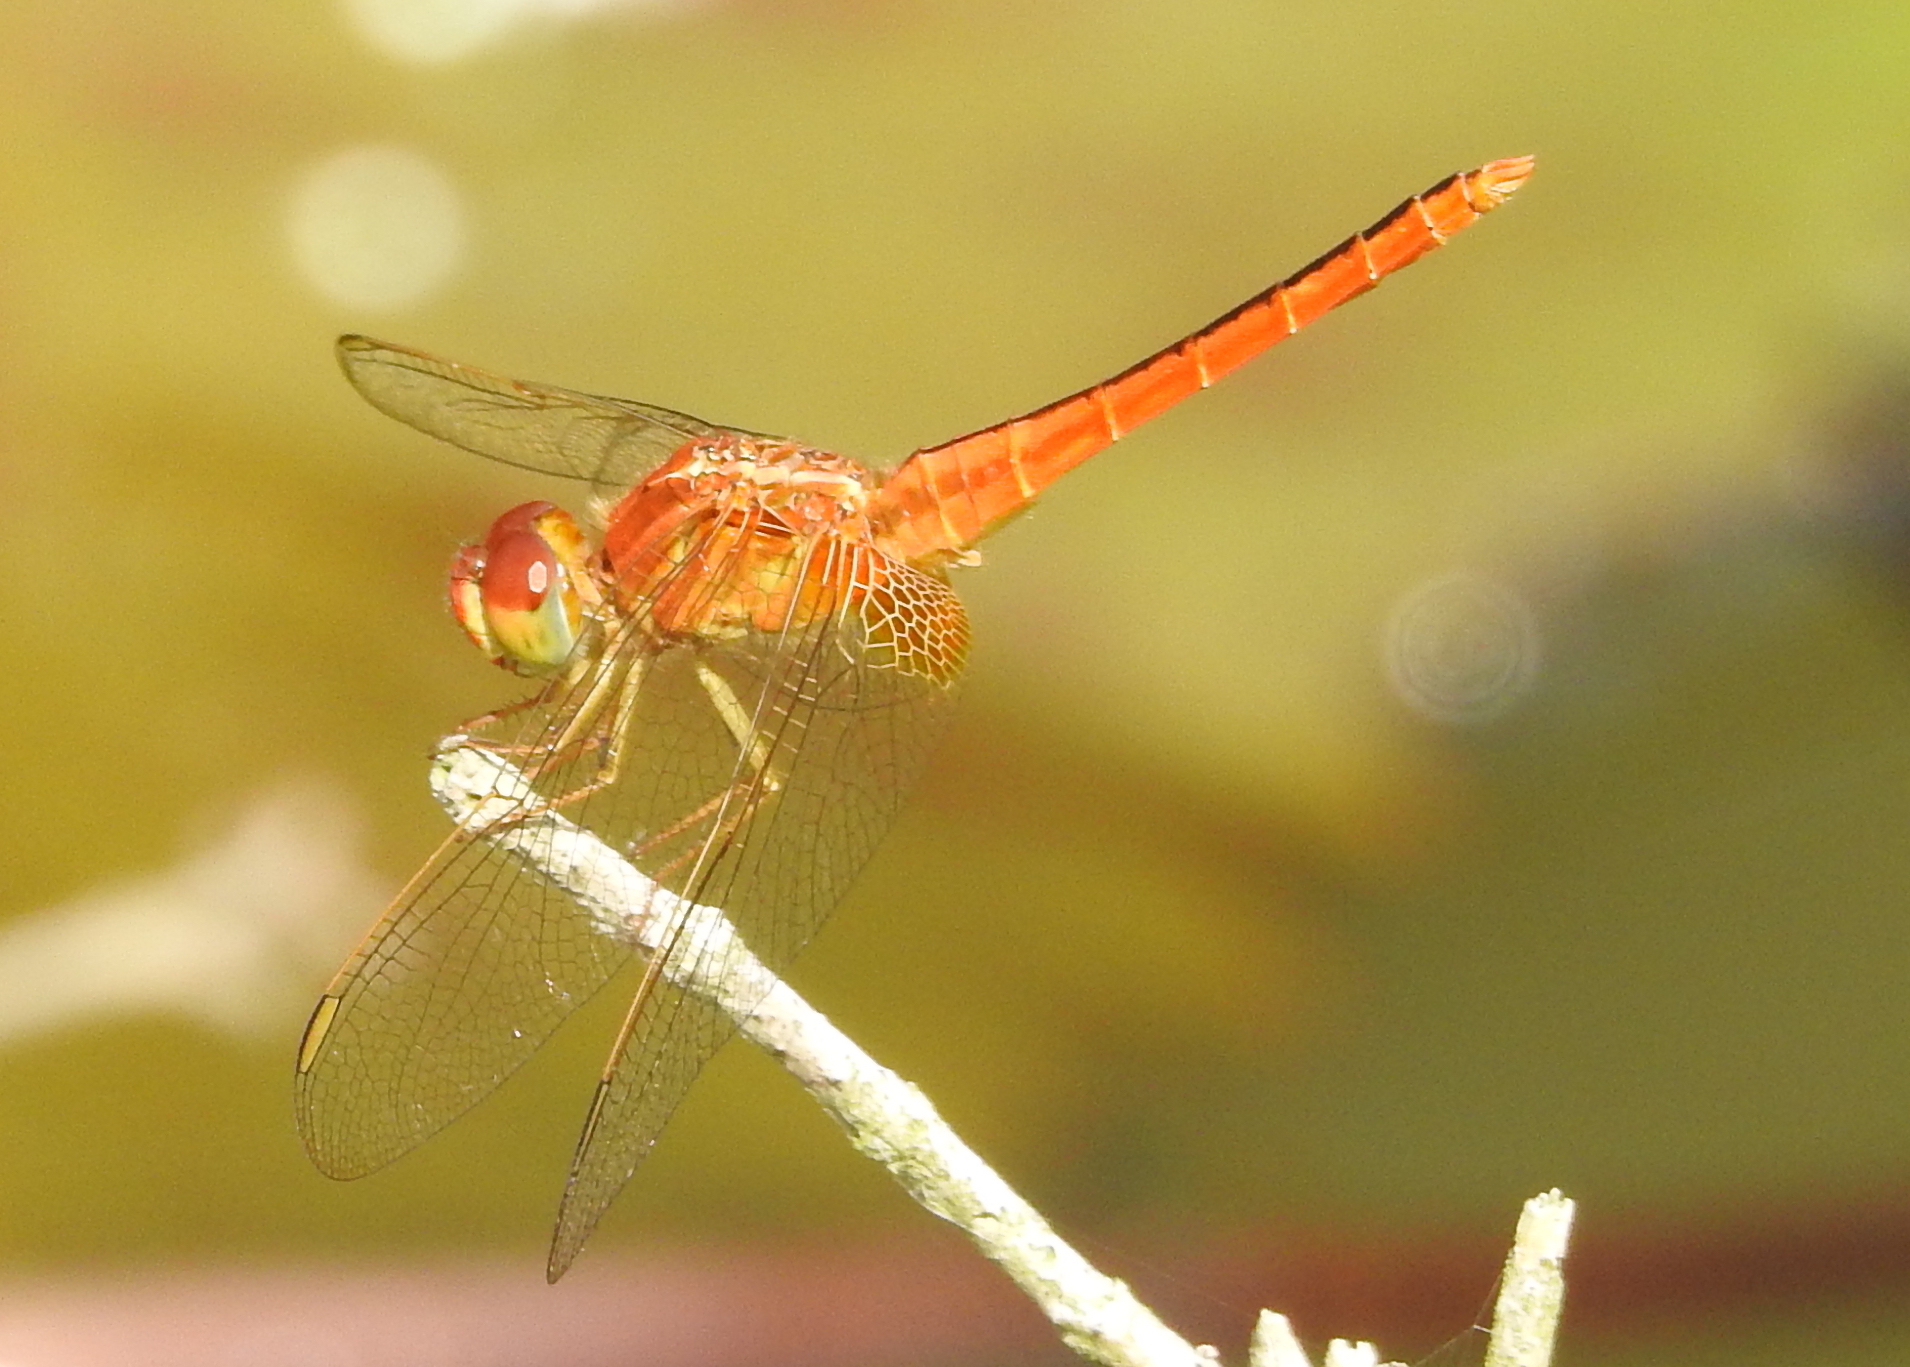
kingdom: Animalia
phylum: Arthropoda
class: Insecta
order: Odonata
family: Libellulidae
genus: Crocothemis
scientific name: Crocothemis servilia
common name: Scarlet skimmer
